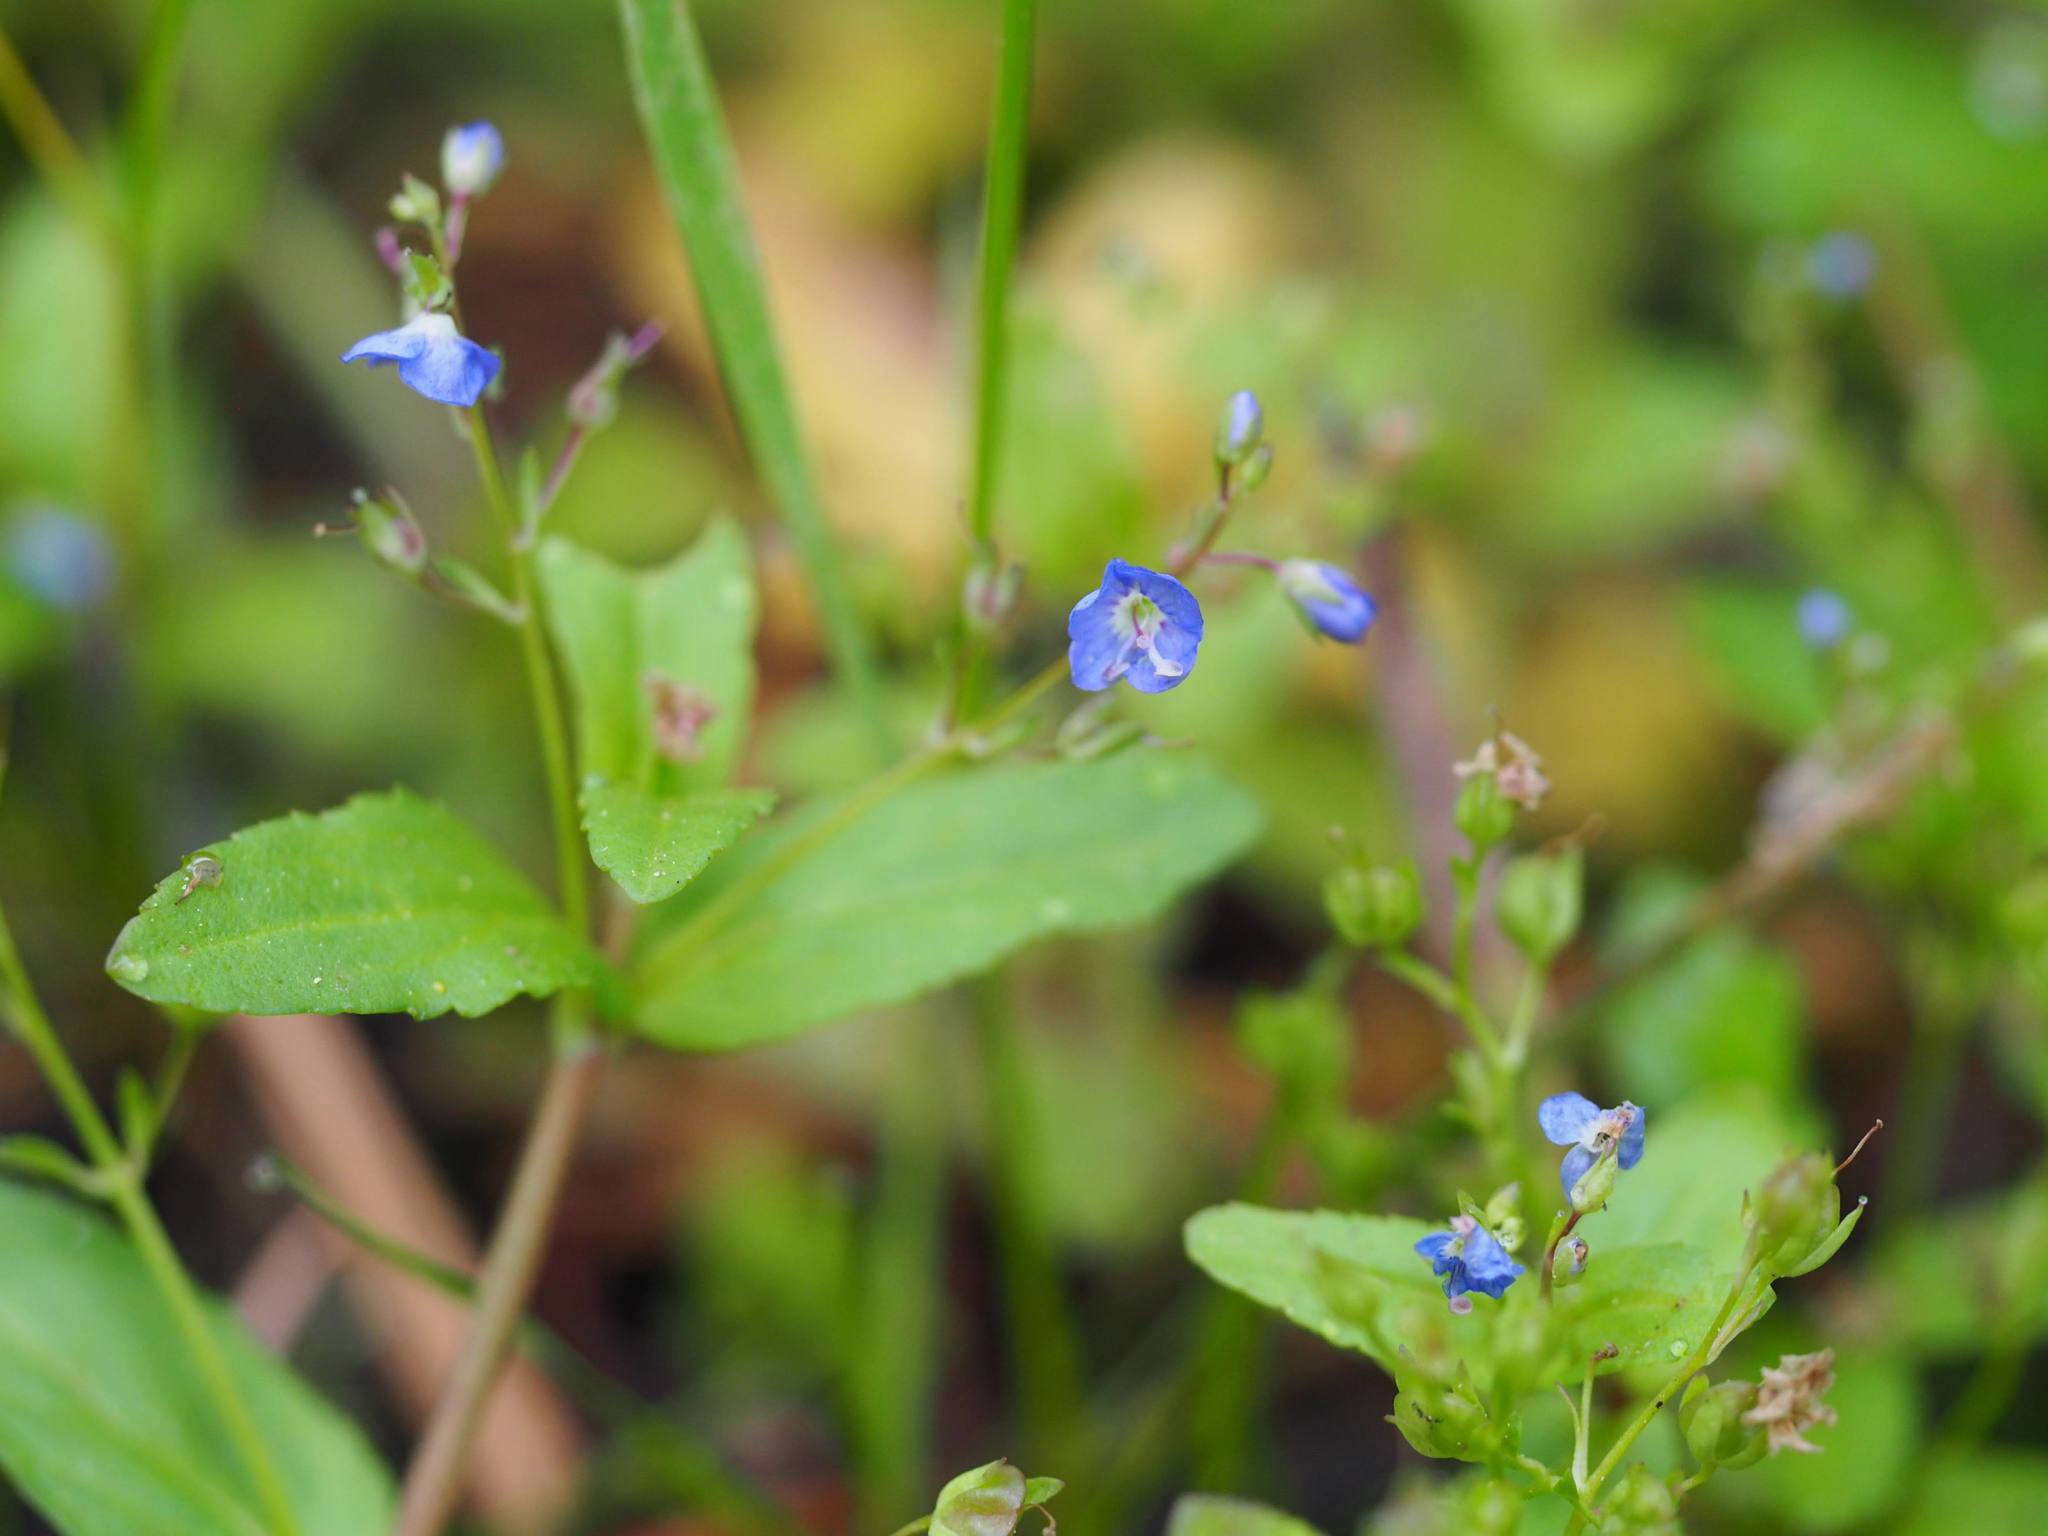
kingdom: Plantae
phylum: Tracheophyta
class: Magnoliopsida
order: Lamiales
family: Plantaginaceae
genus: Veronica
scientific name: Veronica americana
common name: American brooklime
